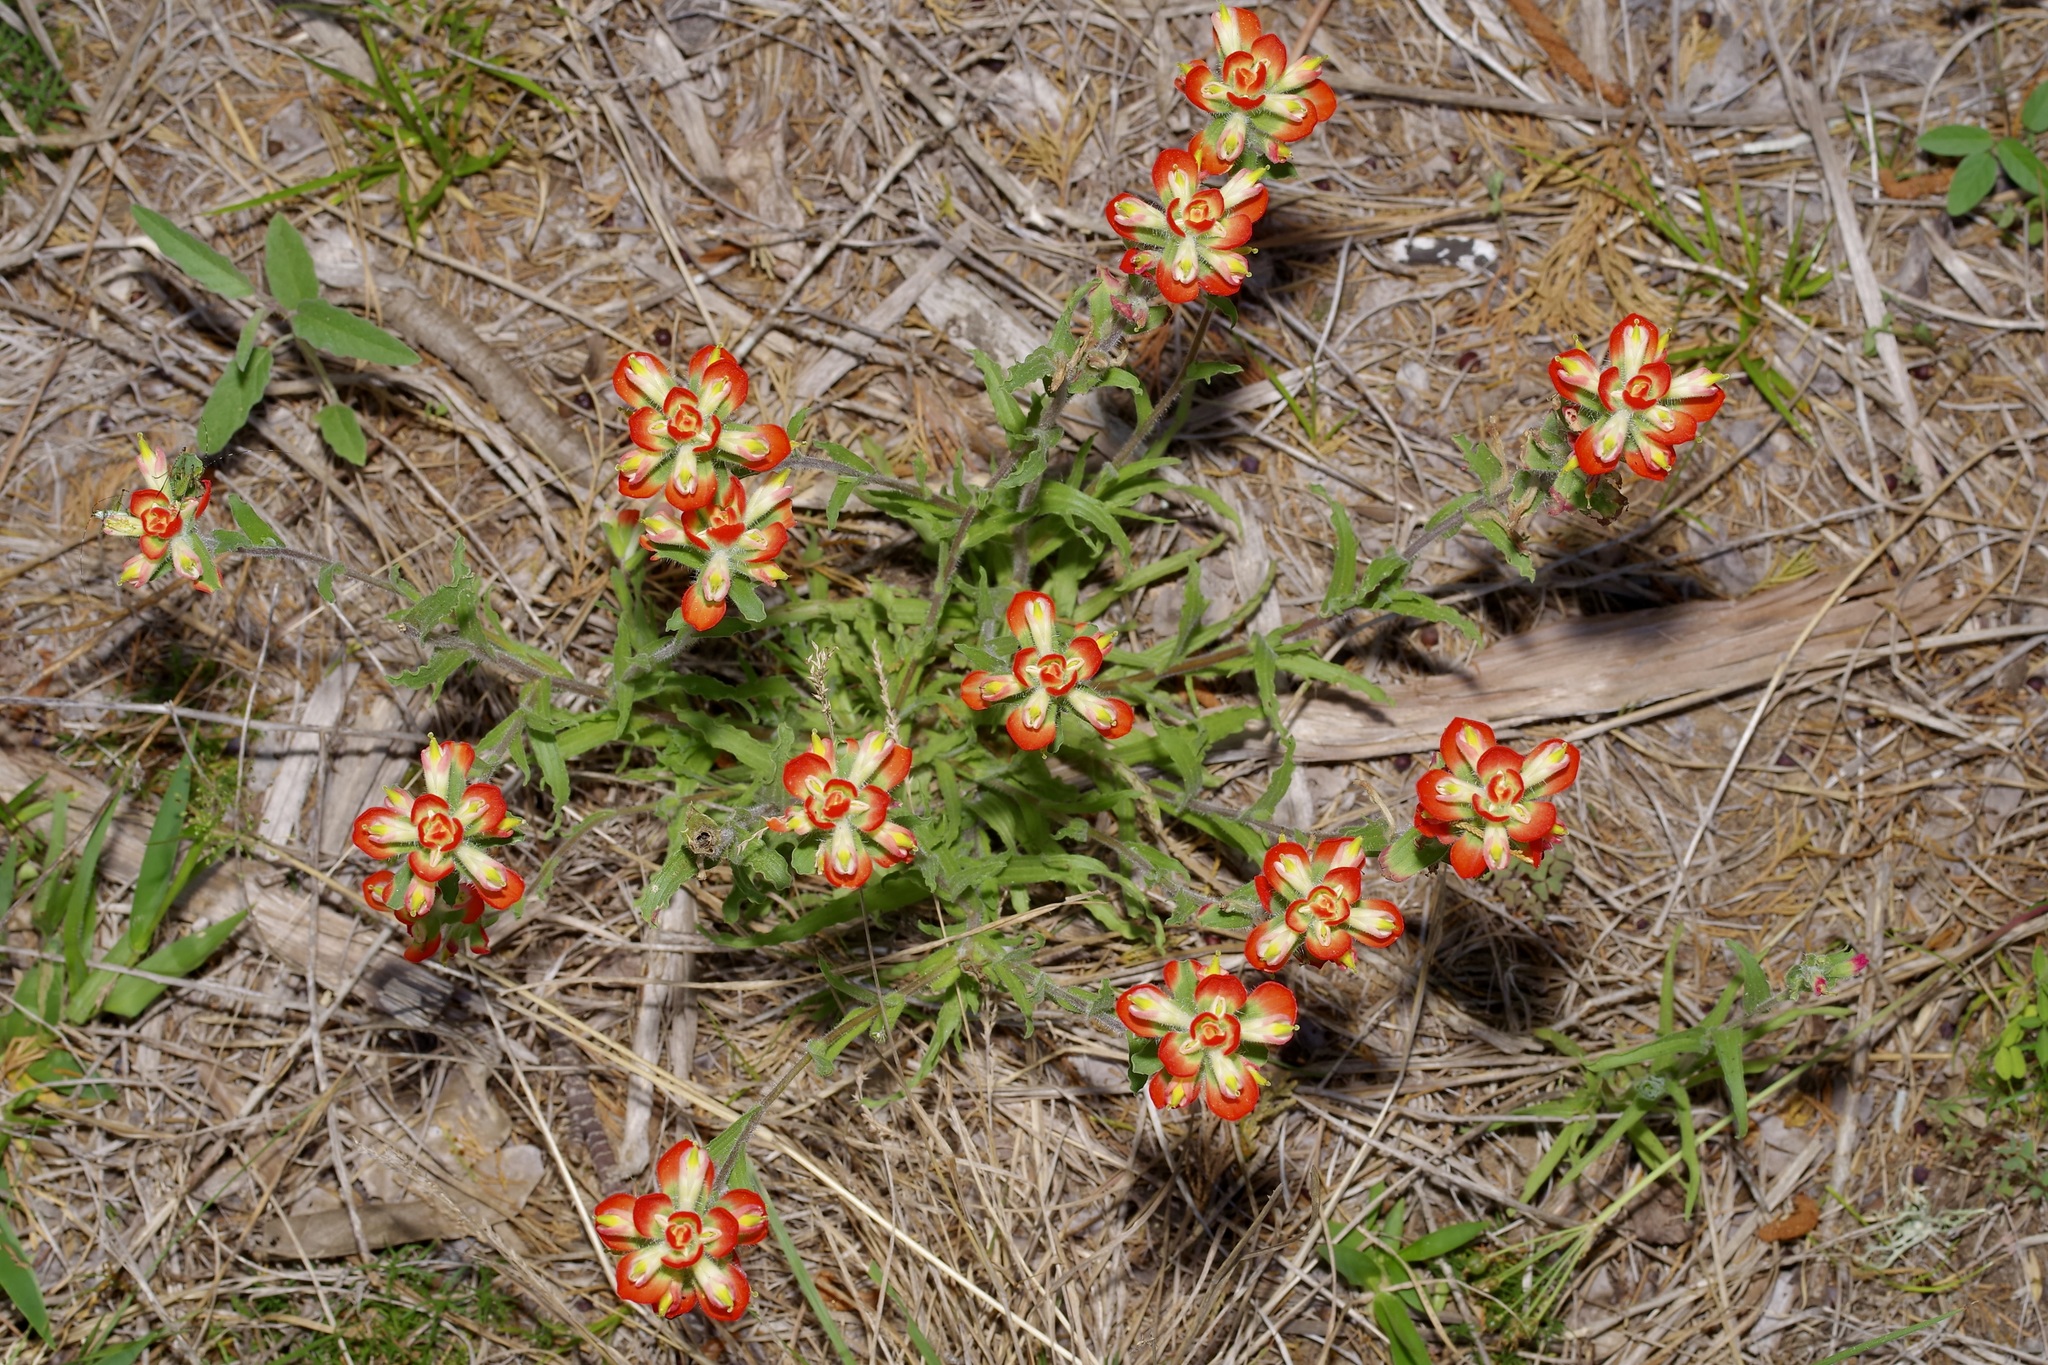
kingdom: Plantae
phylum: Tracheophyta
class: Magnoliopsida
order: Lamiales
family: Orobanchaceae
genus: Castilleja
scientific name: Castilleja indivisa
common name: Texas paintbrush
